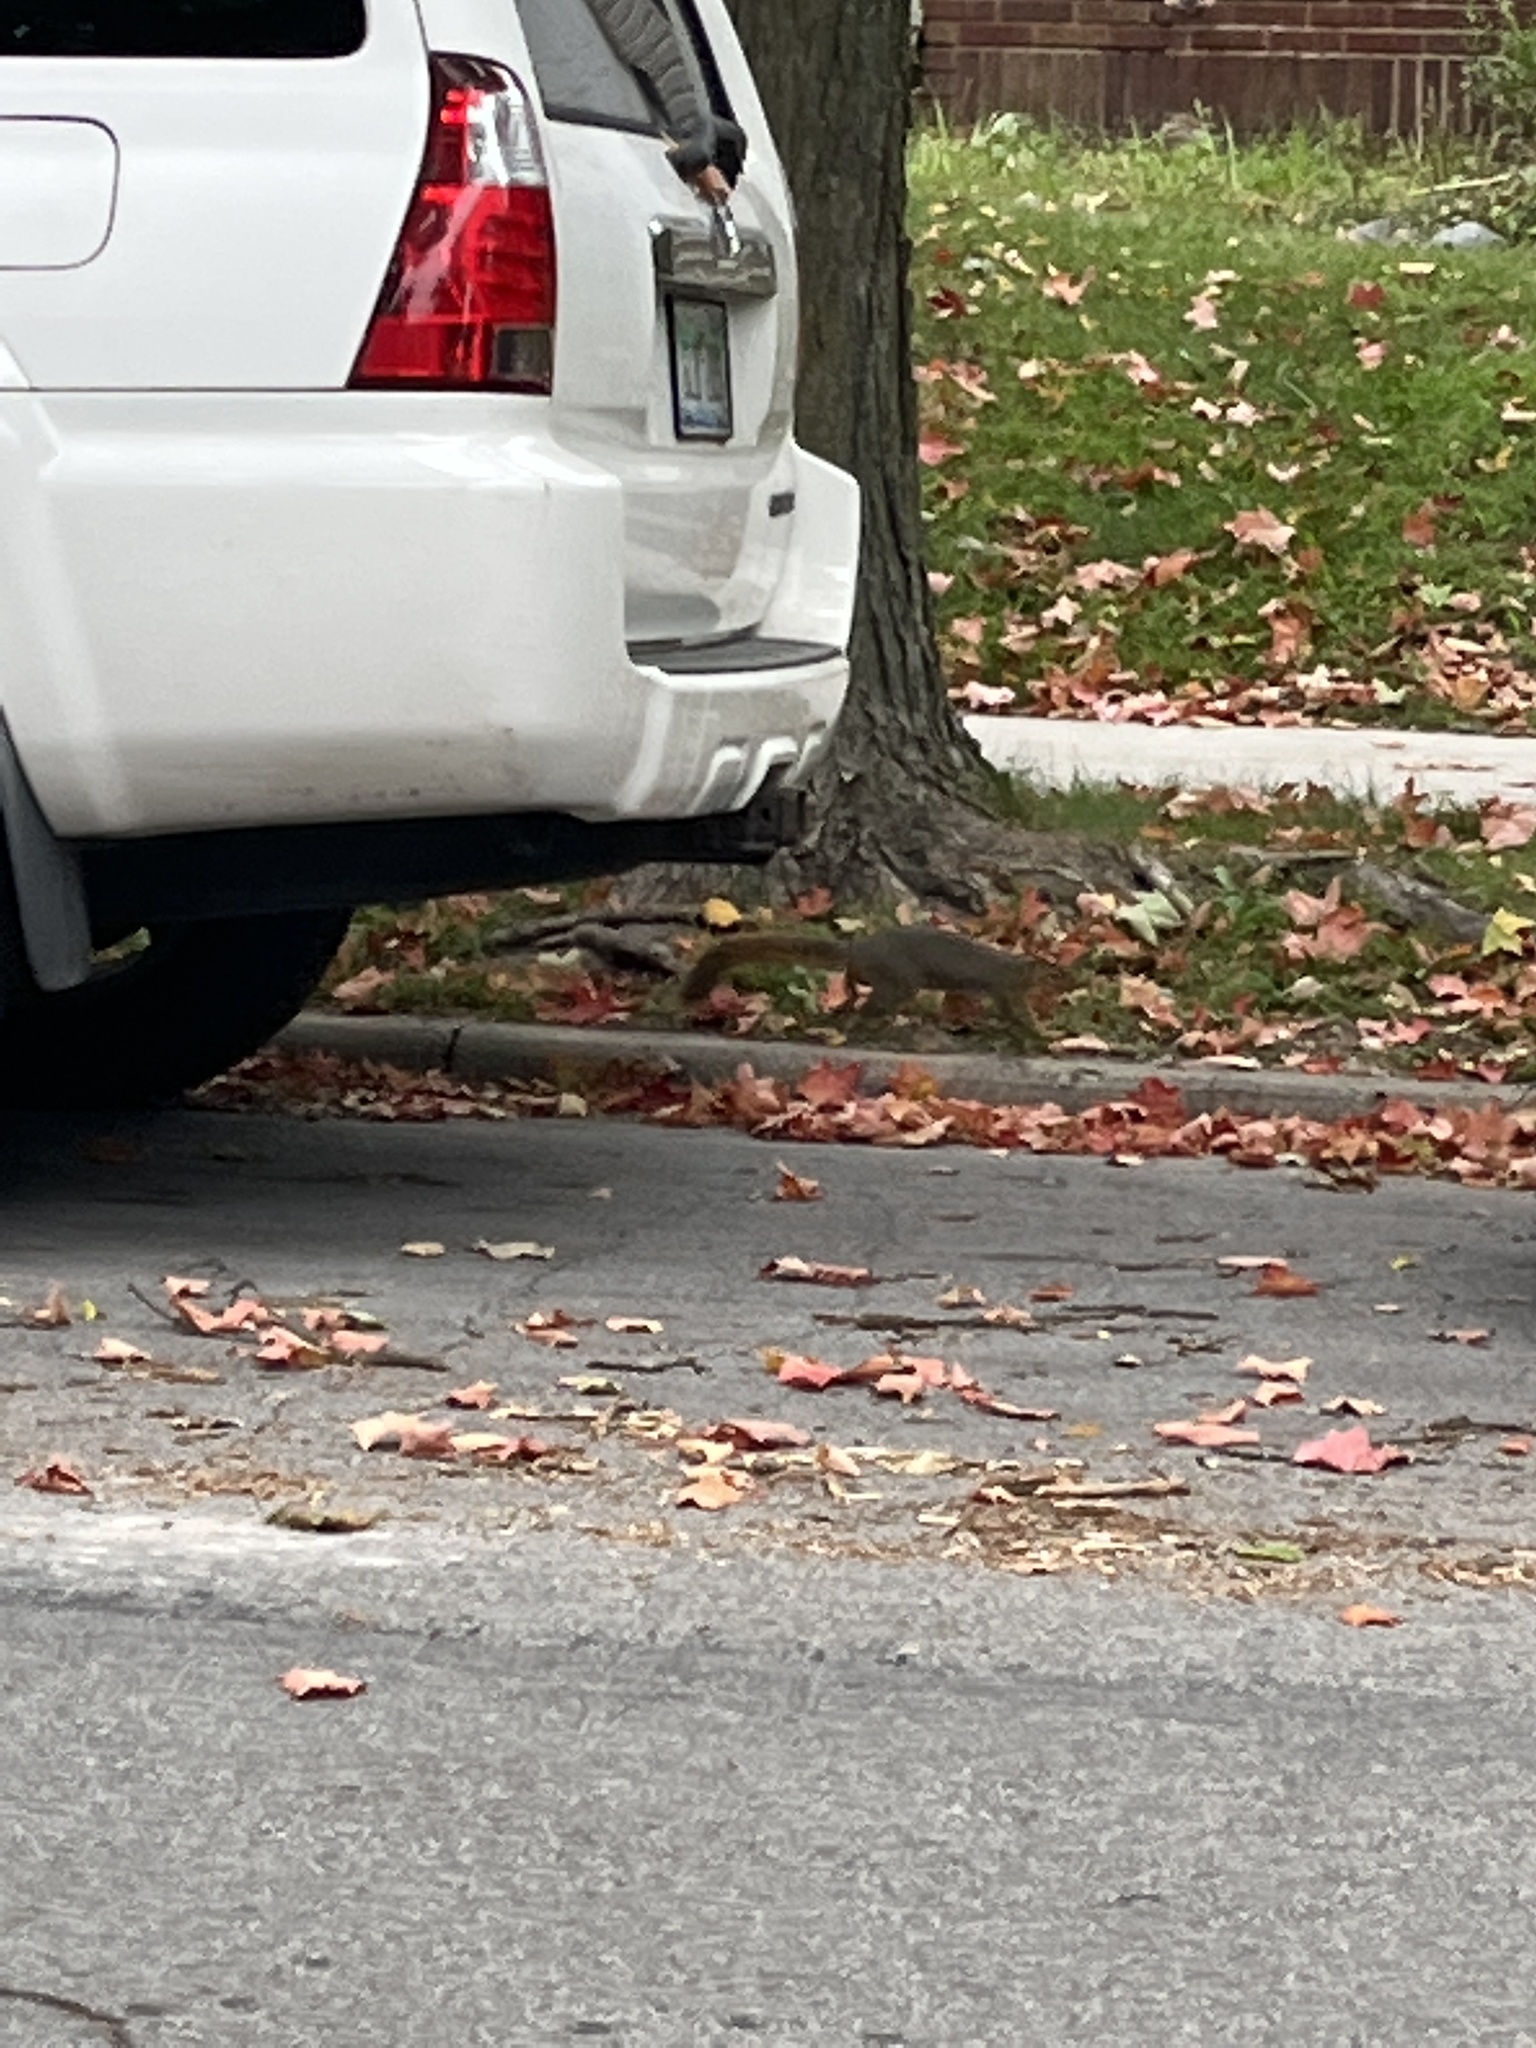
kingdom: Animalia
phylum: Chordata
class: Mammalia
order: Rodentia
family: Sciuridae
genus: Sciurus
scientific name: Sciurus niger
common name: Fox squirrel
